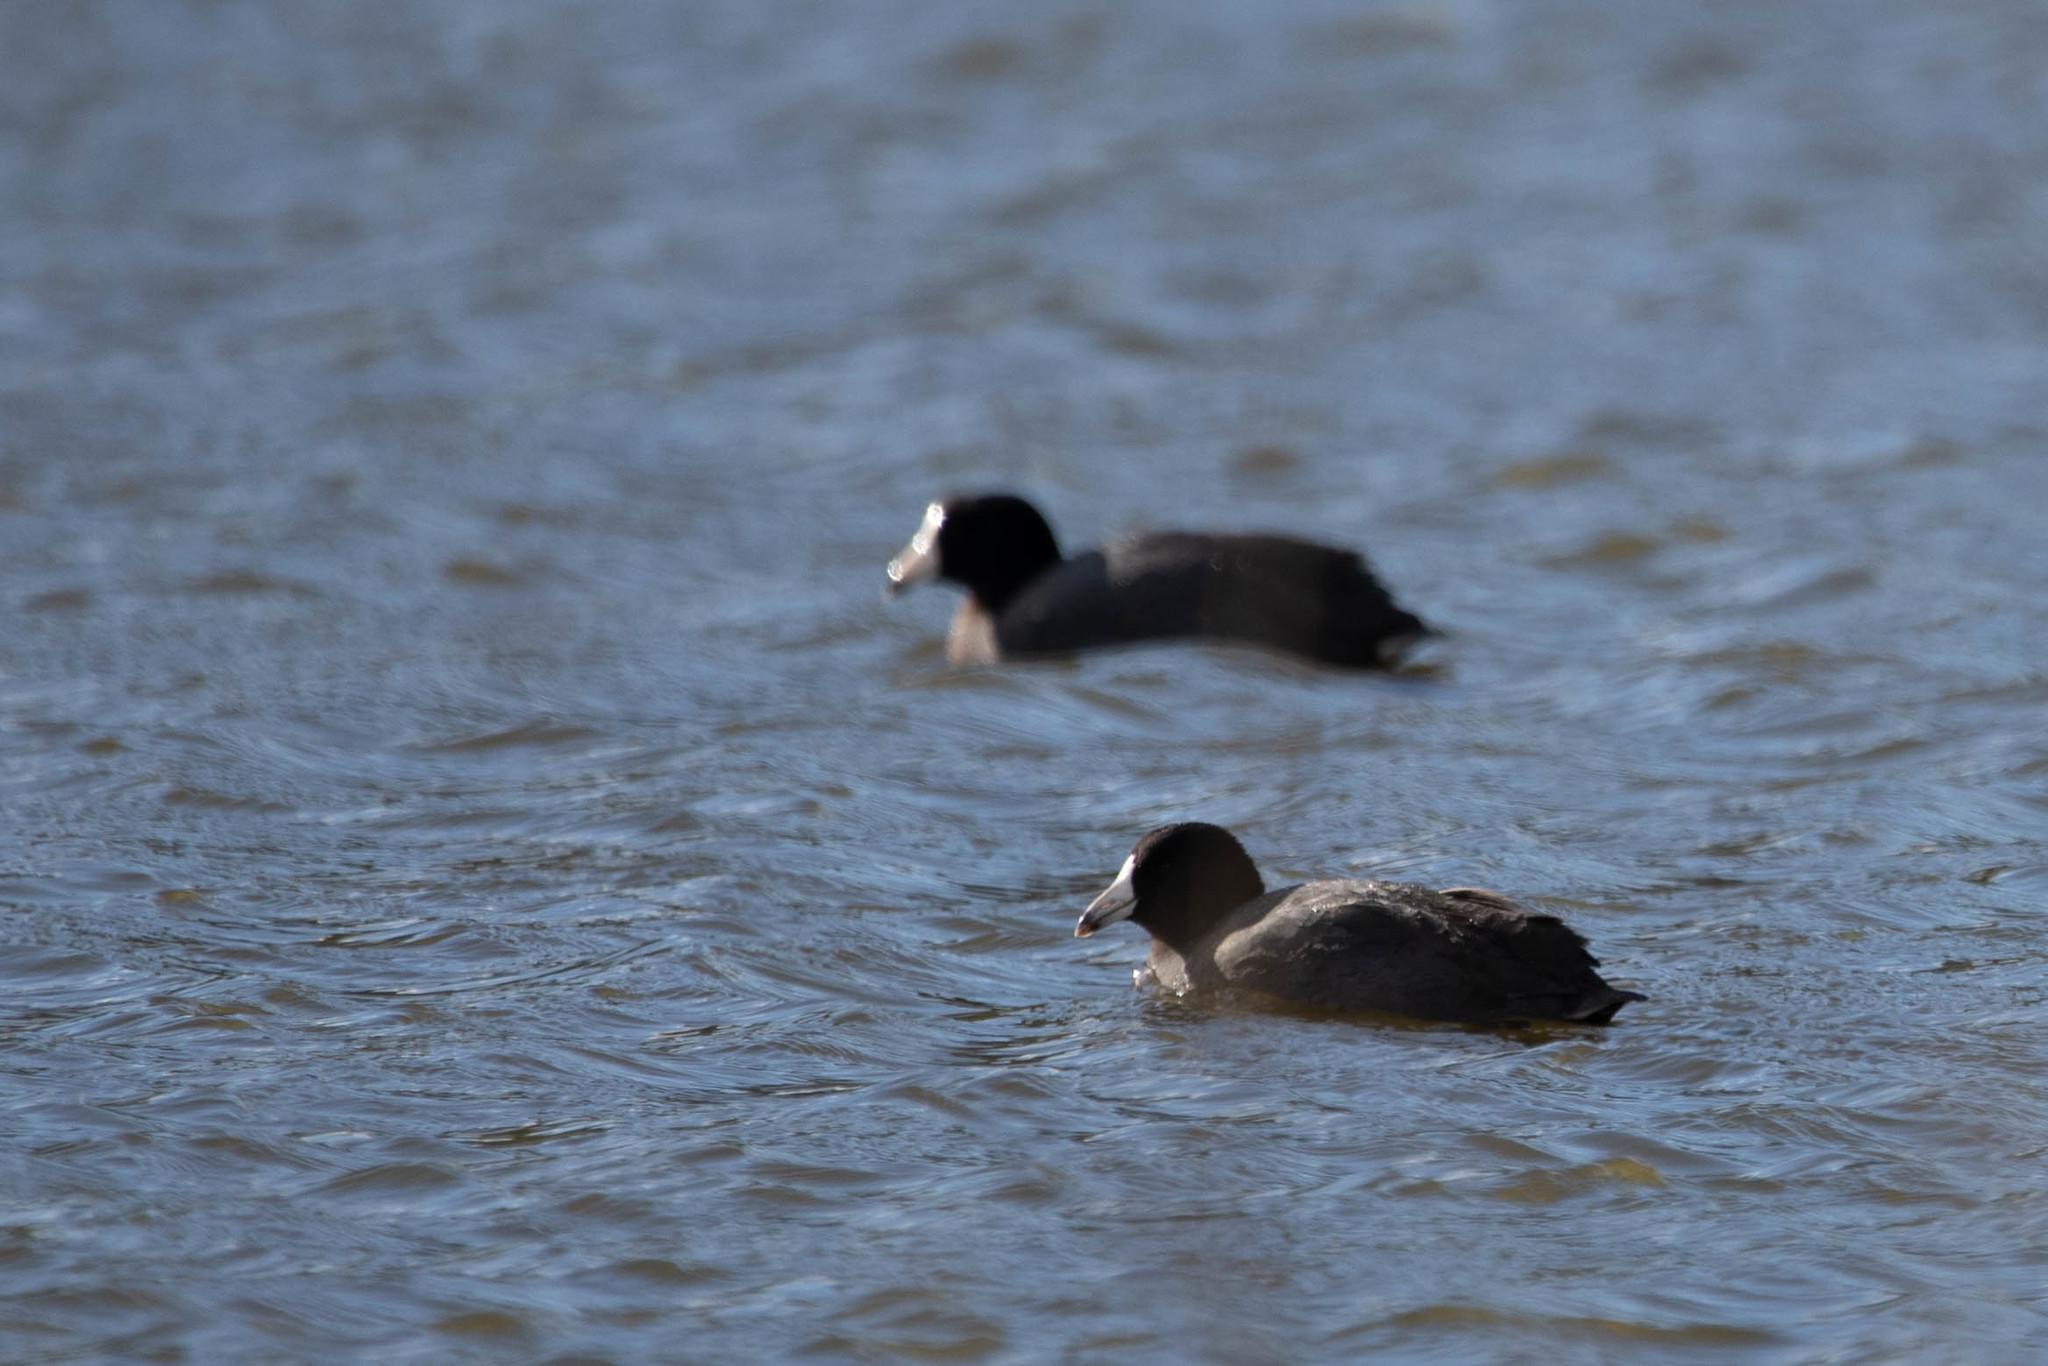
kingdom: Animalia
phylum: Chordata
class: Aves
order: Gruiformes
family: Rallidae
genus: Fulica
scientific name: Fulica americana
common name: American coot
